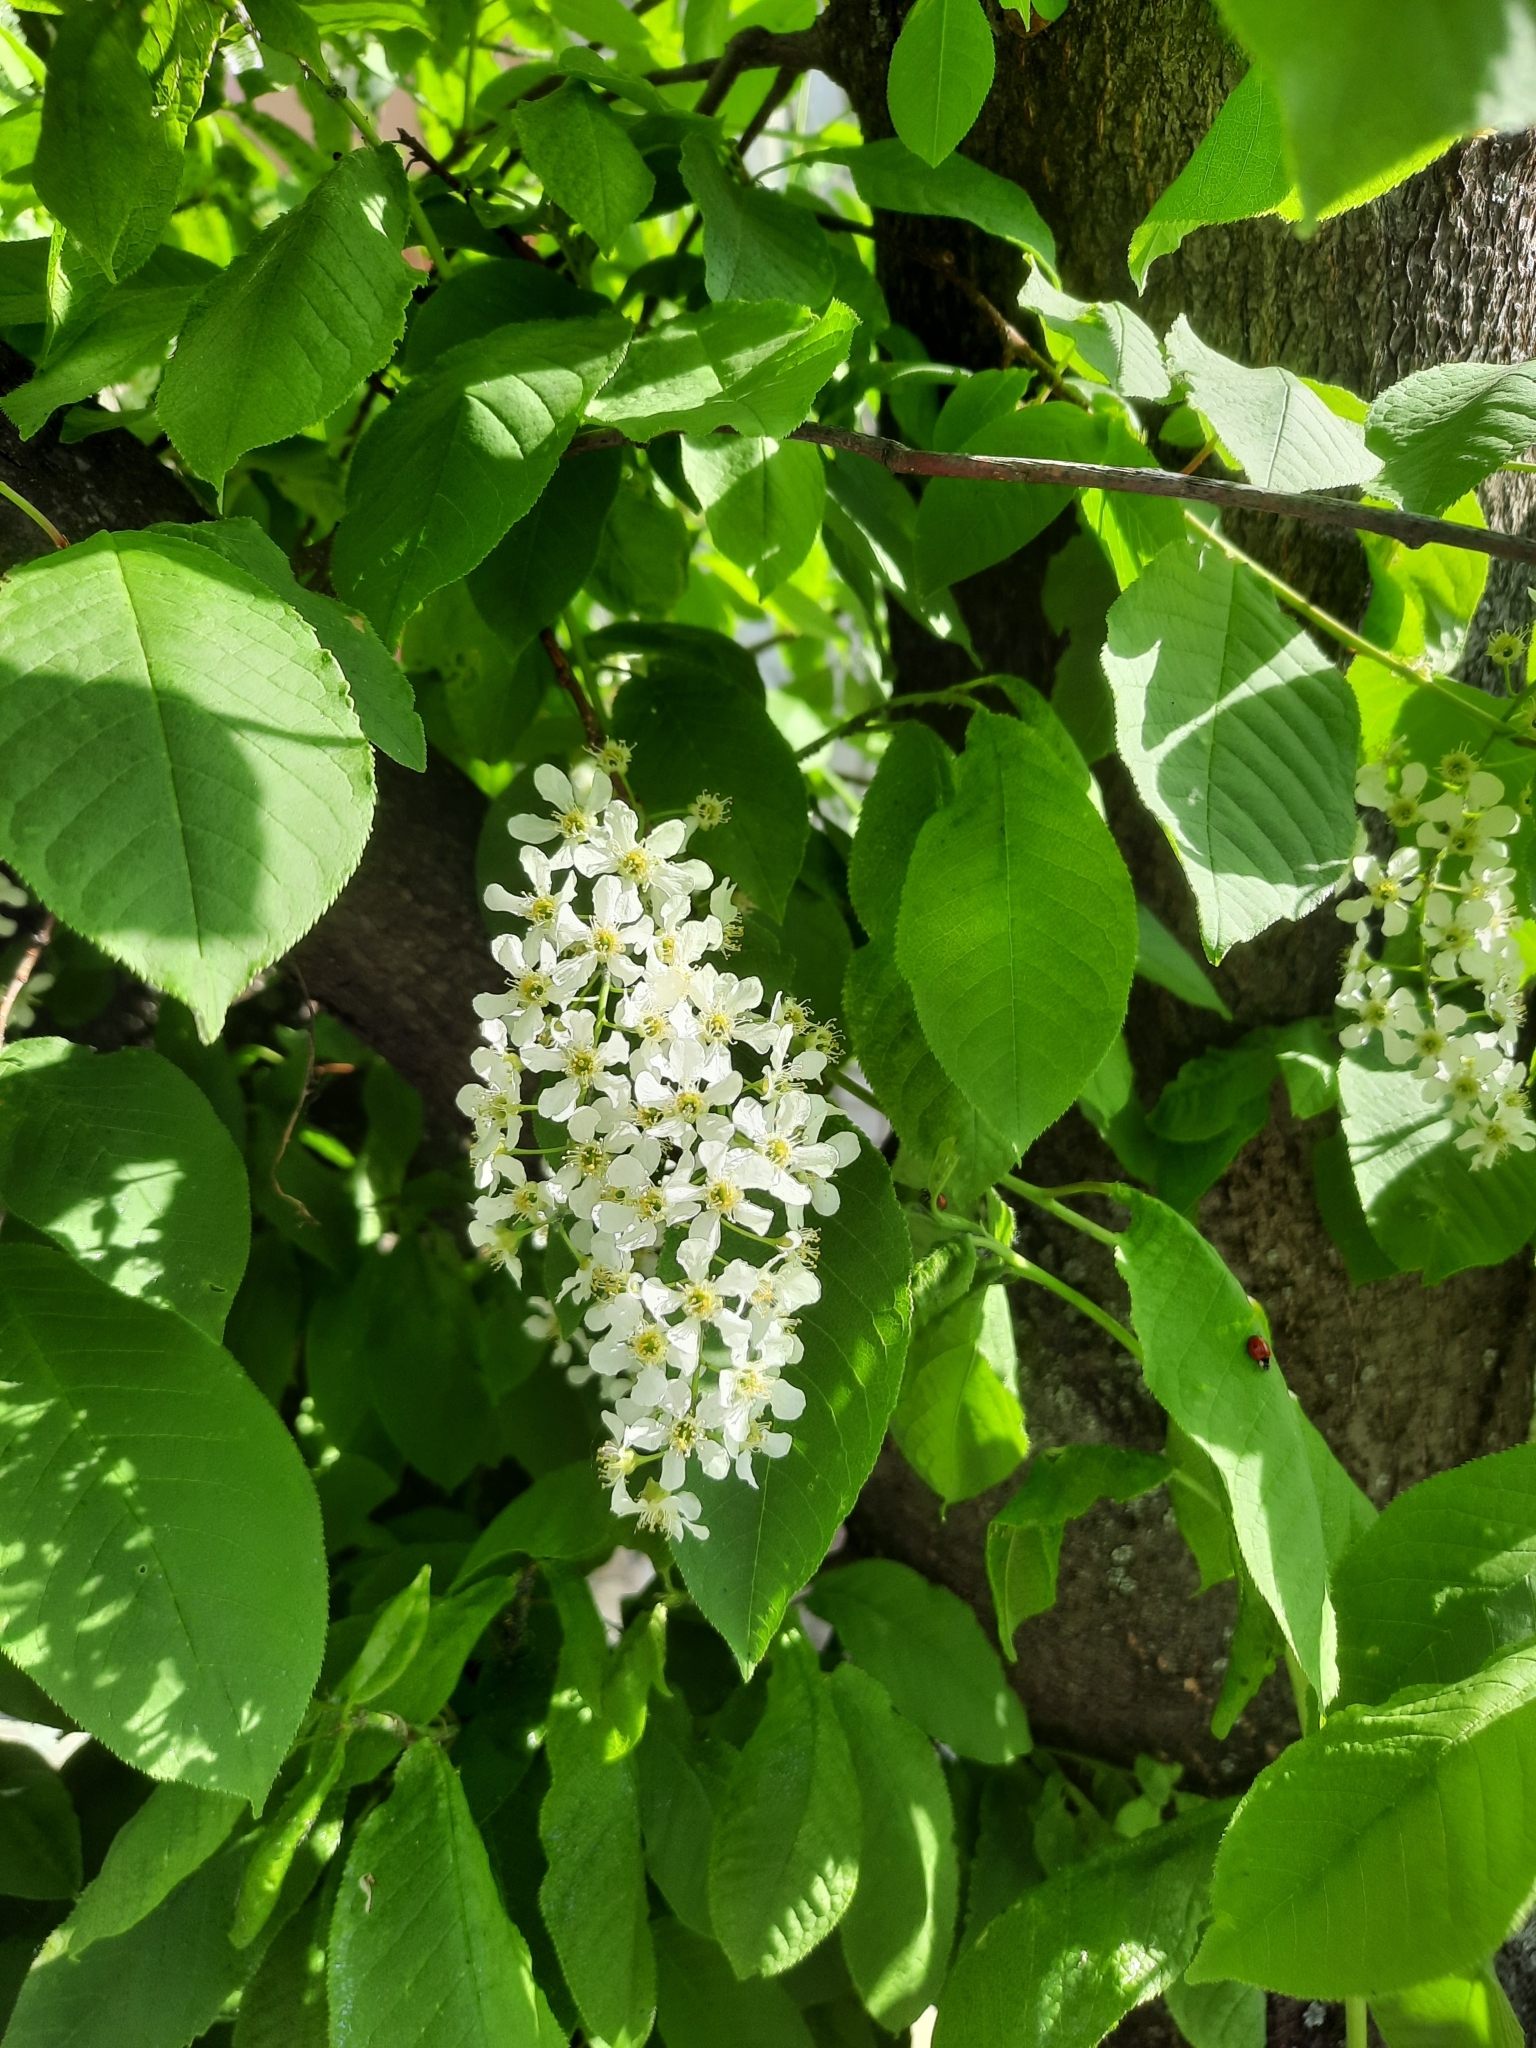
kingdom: Plantae
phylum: Tracheophyta
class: Magnoliopsida
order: Rosales
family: Rosaceae
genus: Prunus
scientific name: Prunus padus
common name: Bird cherry
